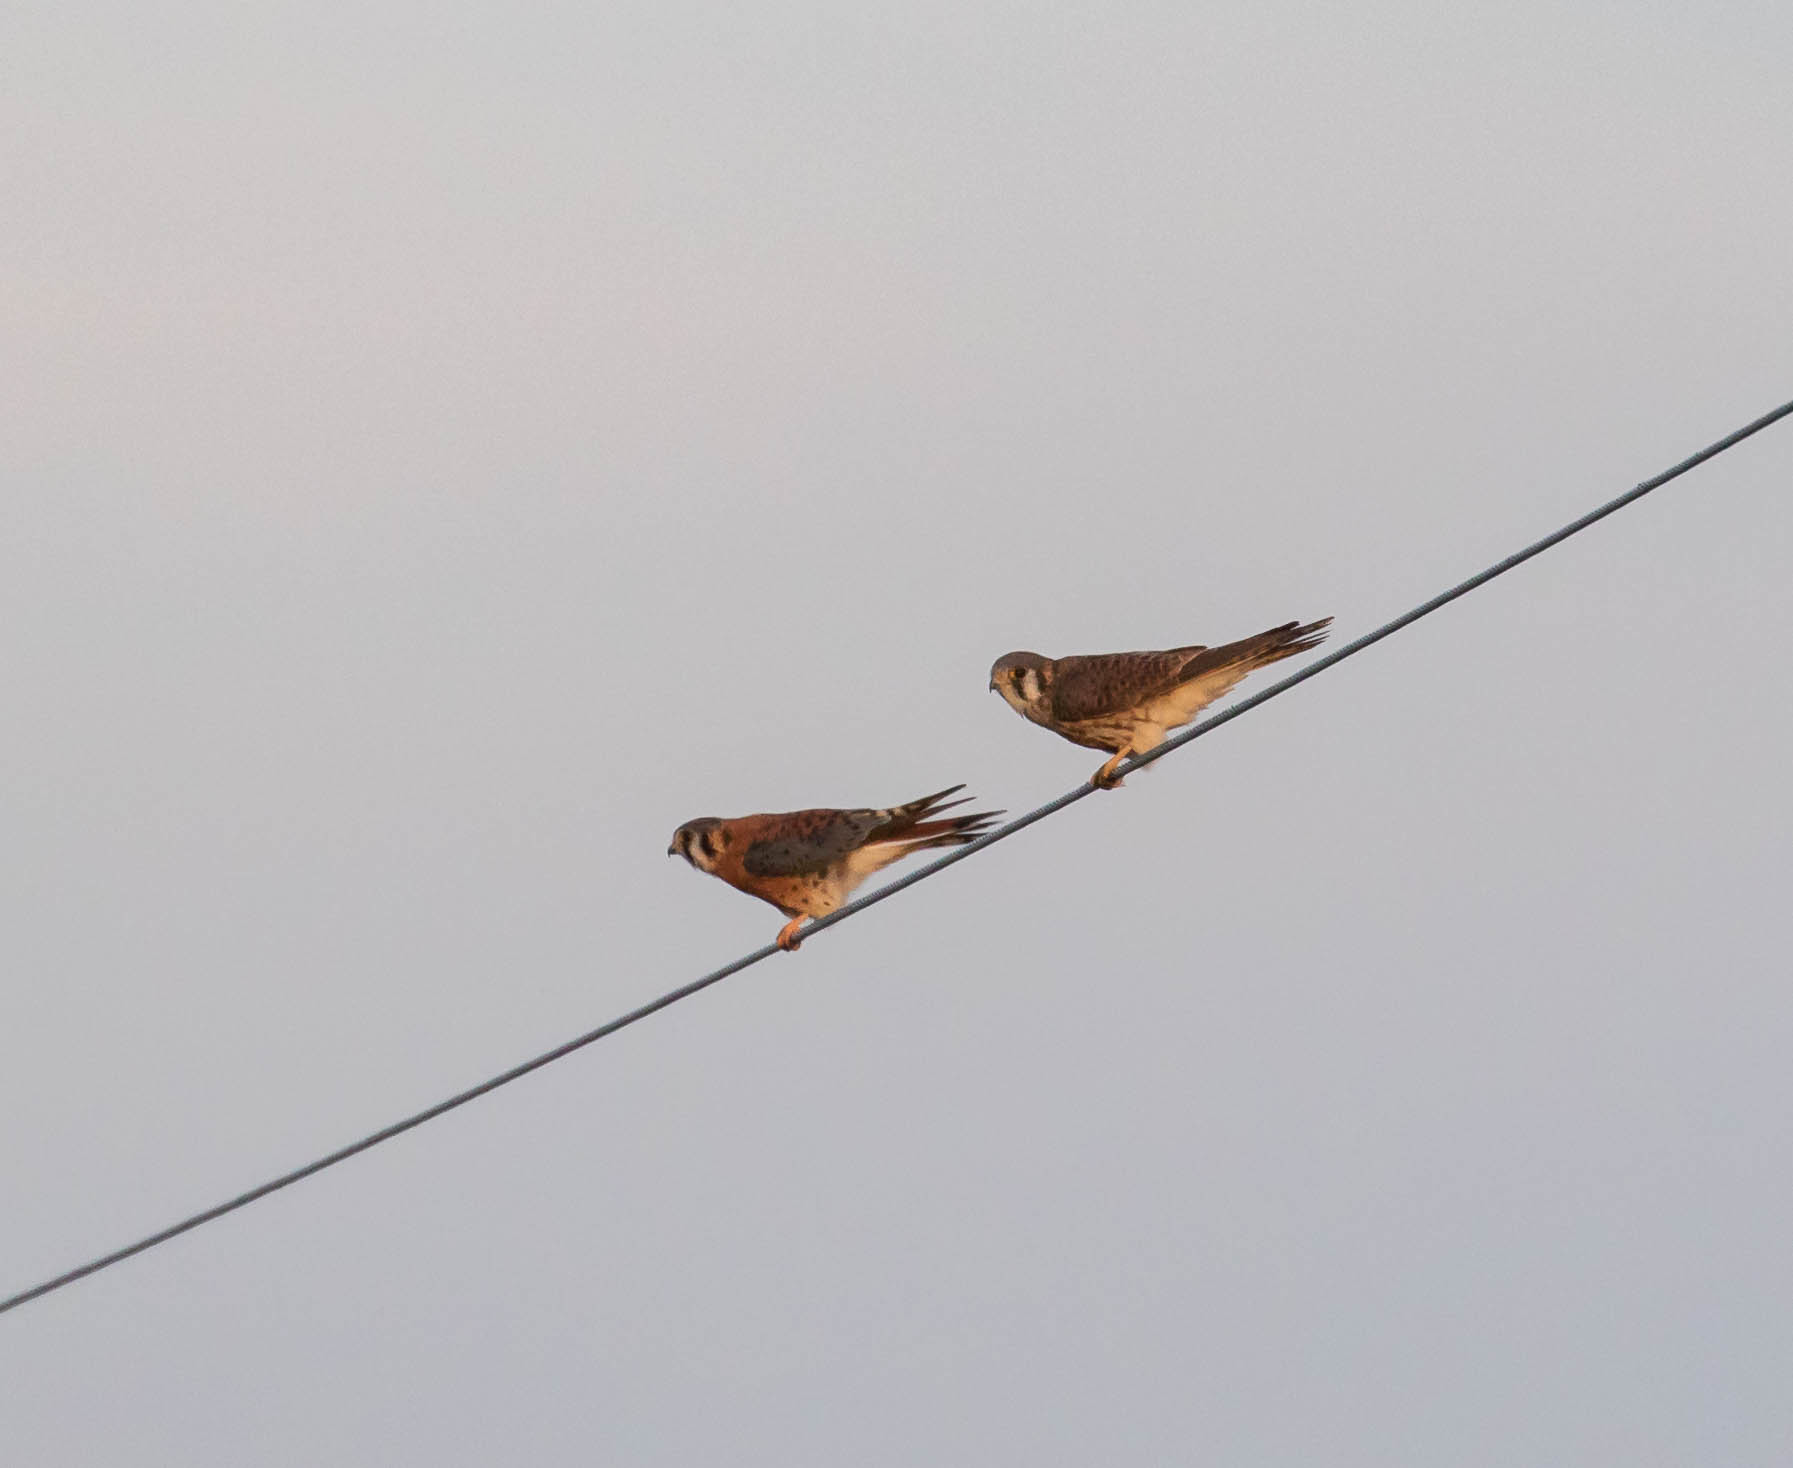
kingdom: Animalia
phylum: Chordata
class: Aves
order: Falconiformes
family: Falconidae
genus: Falco
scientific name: Falco sparverius
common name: American kestrel
